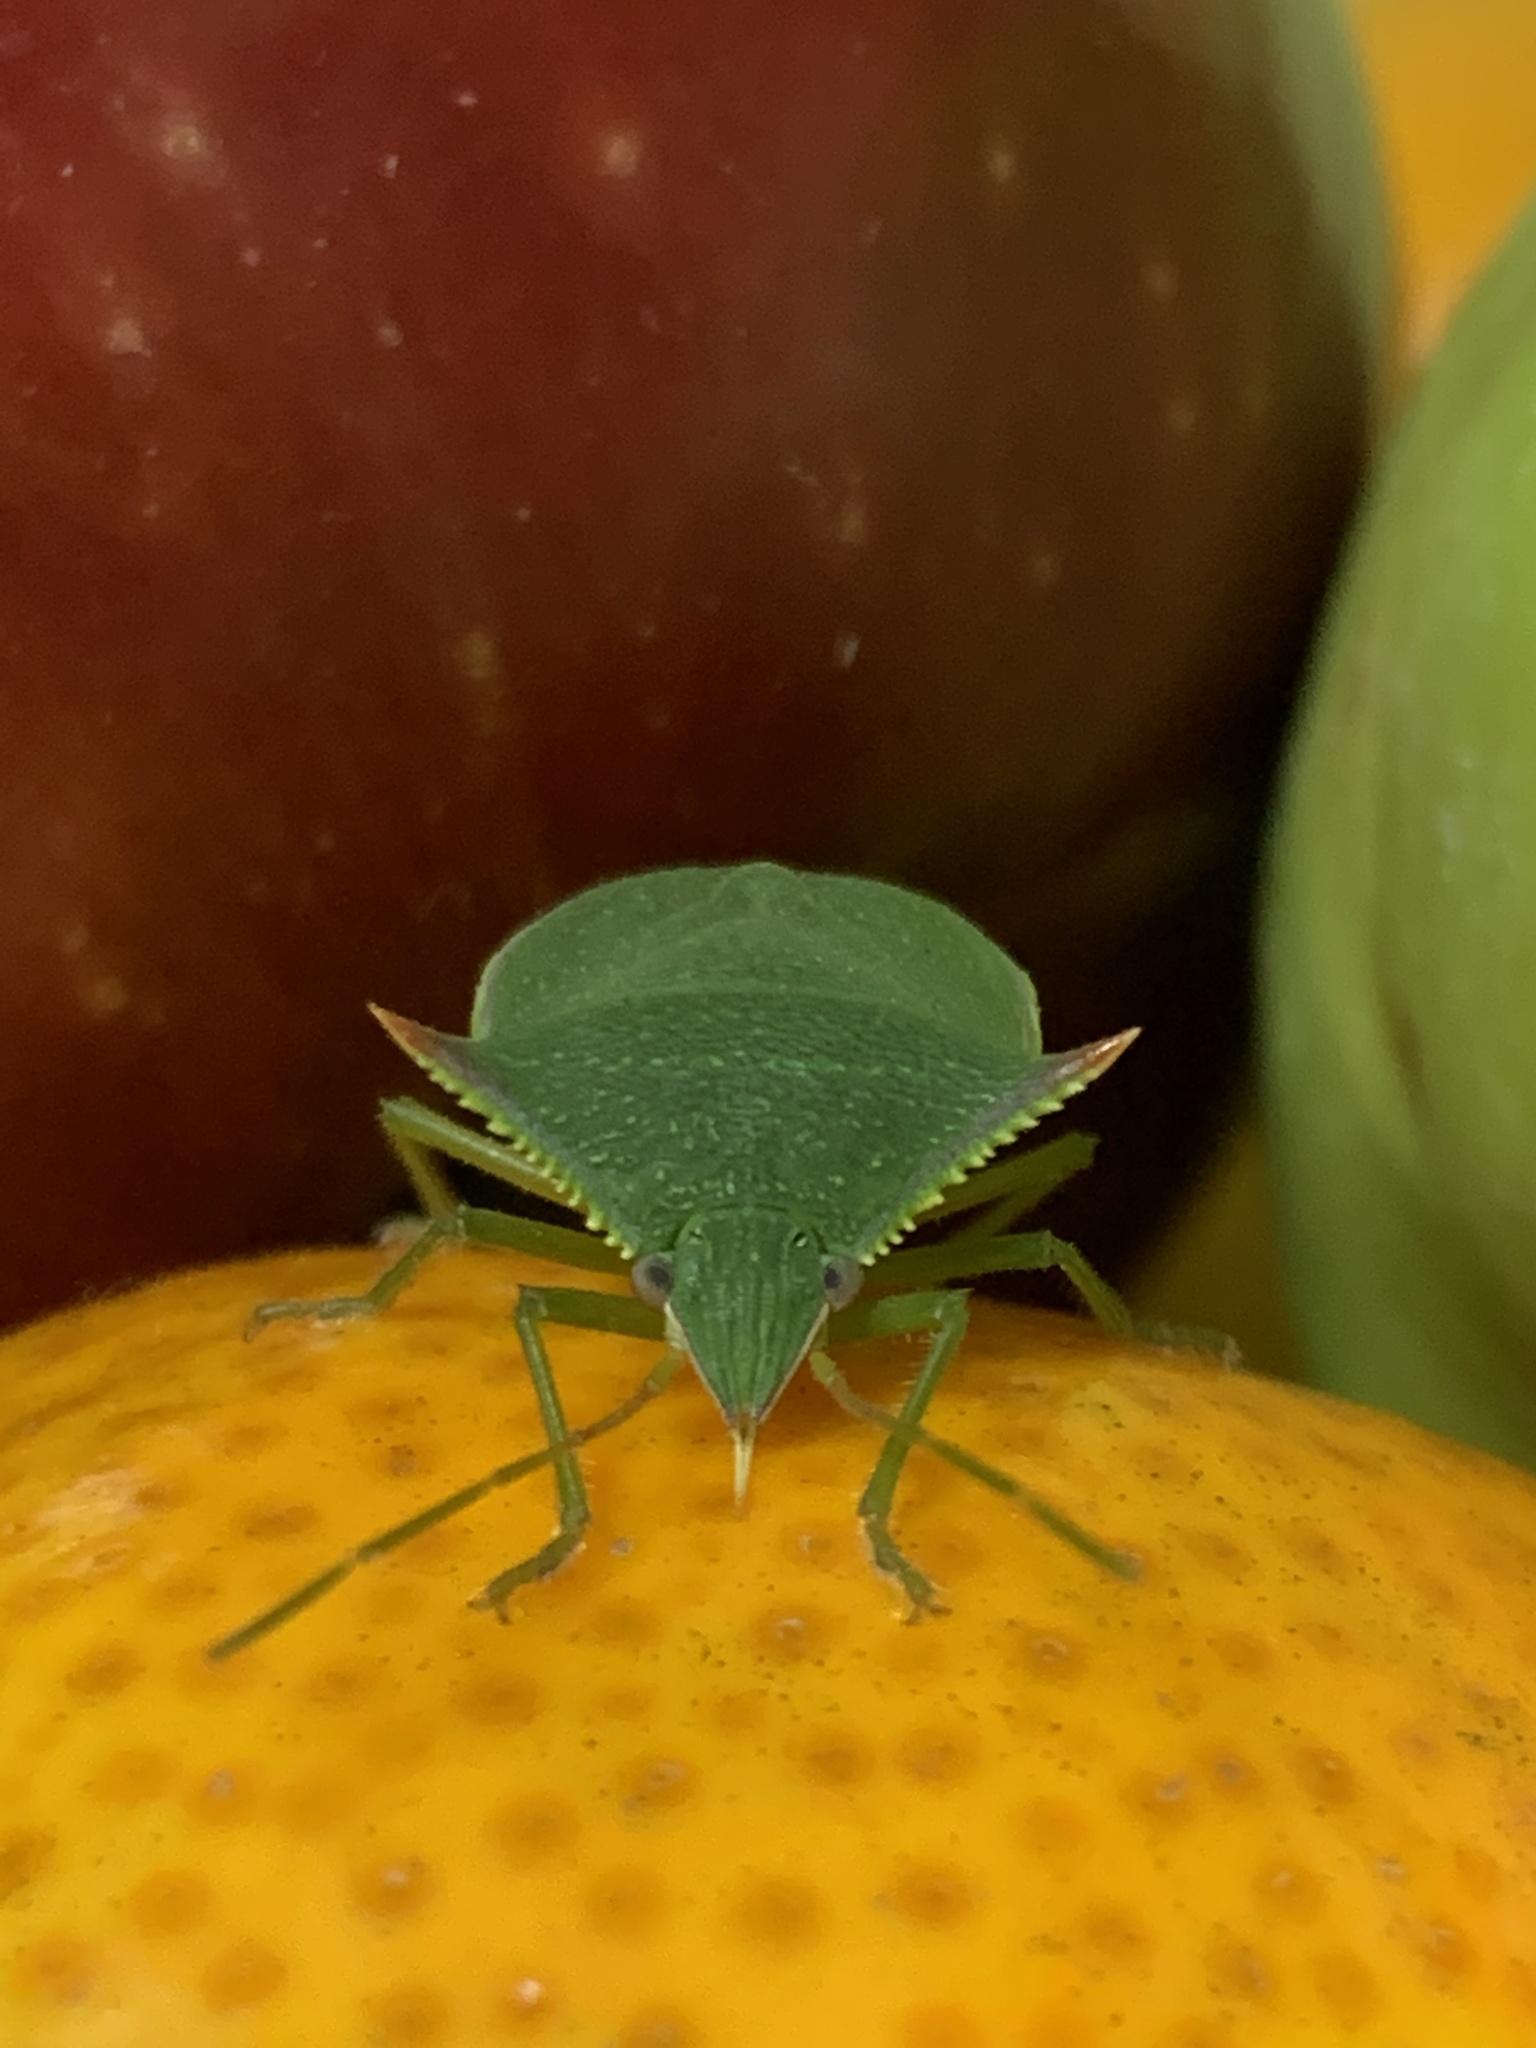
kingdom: Animalia
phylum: Arthropoda
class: Insecta
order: Hemiptera
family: Pentatomidae
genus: Loxa
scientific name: Loxa deducta
